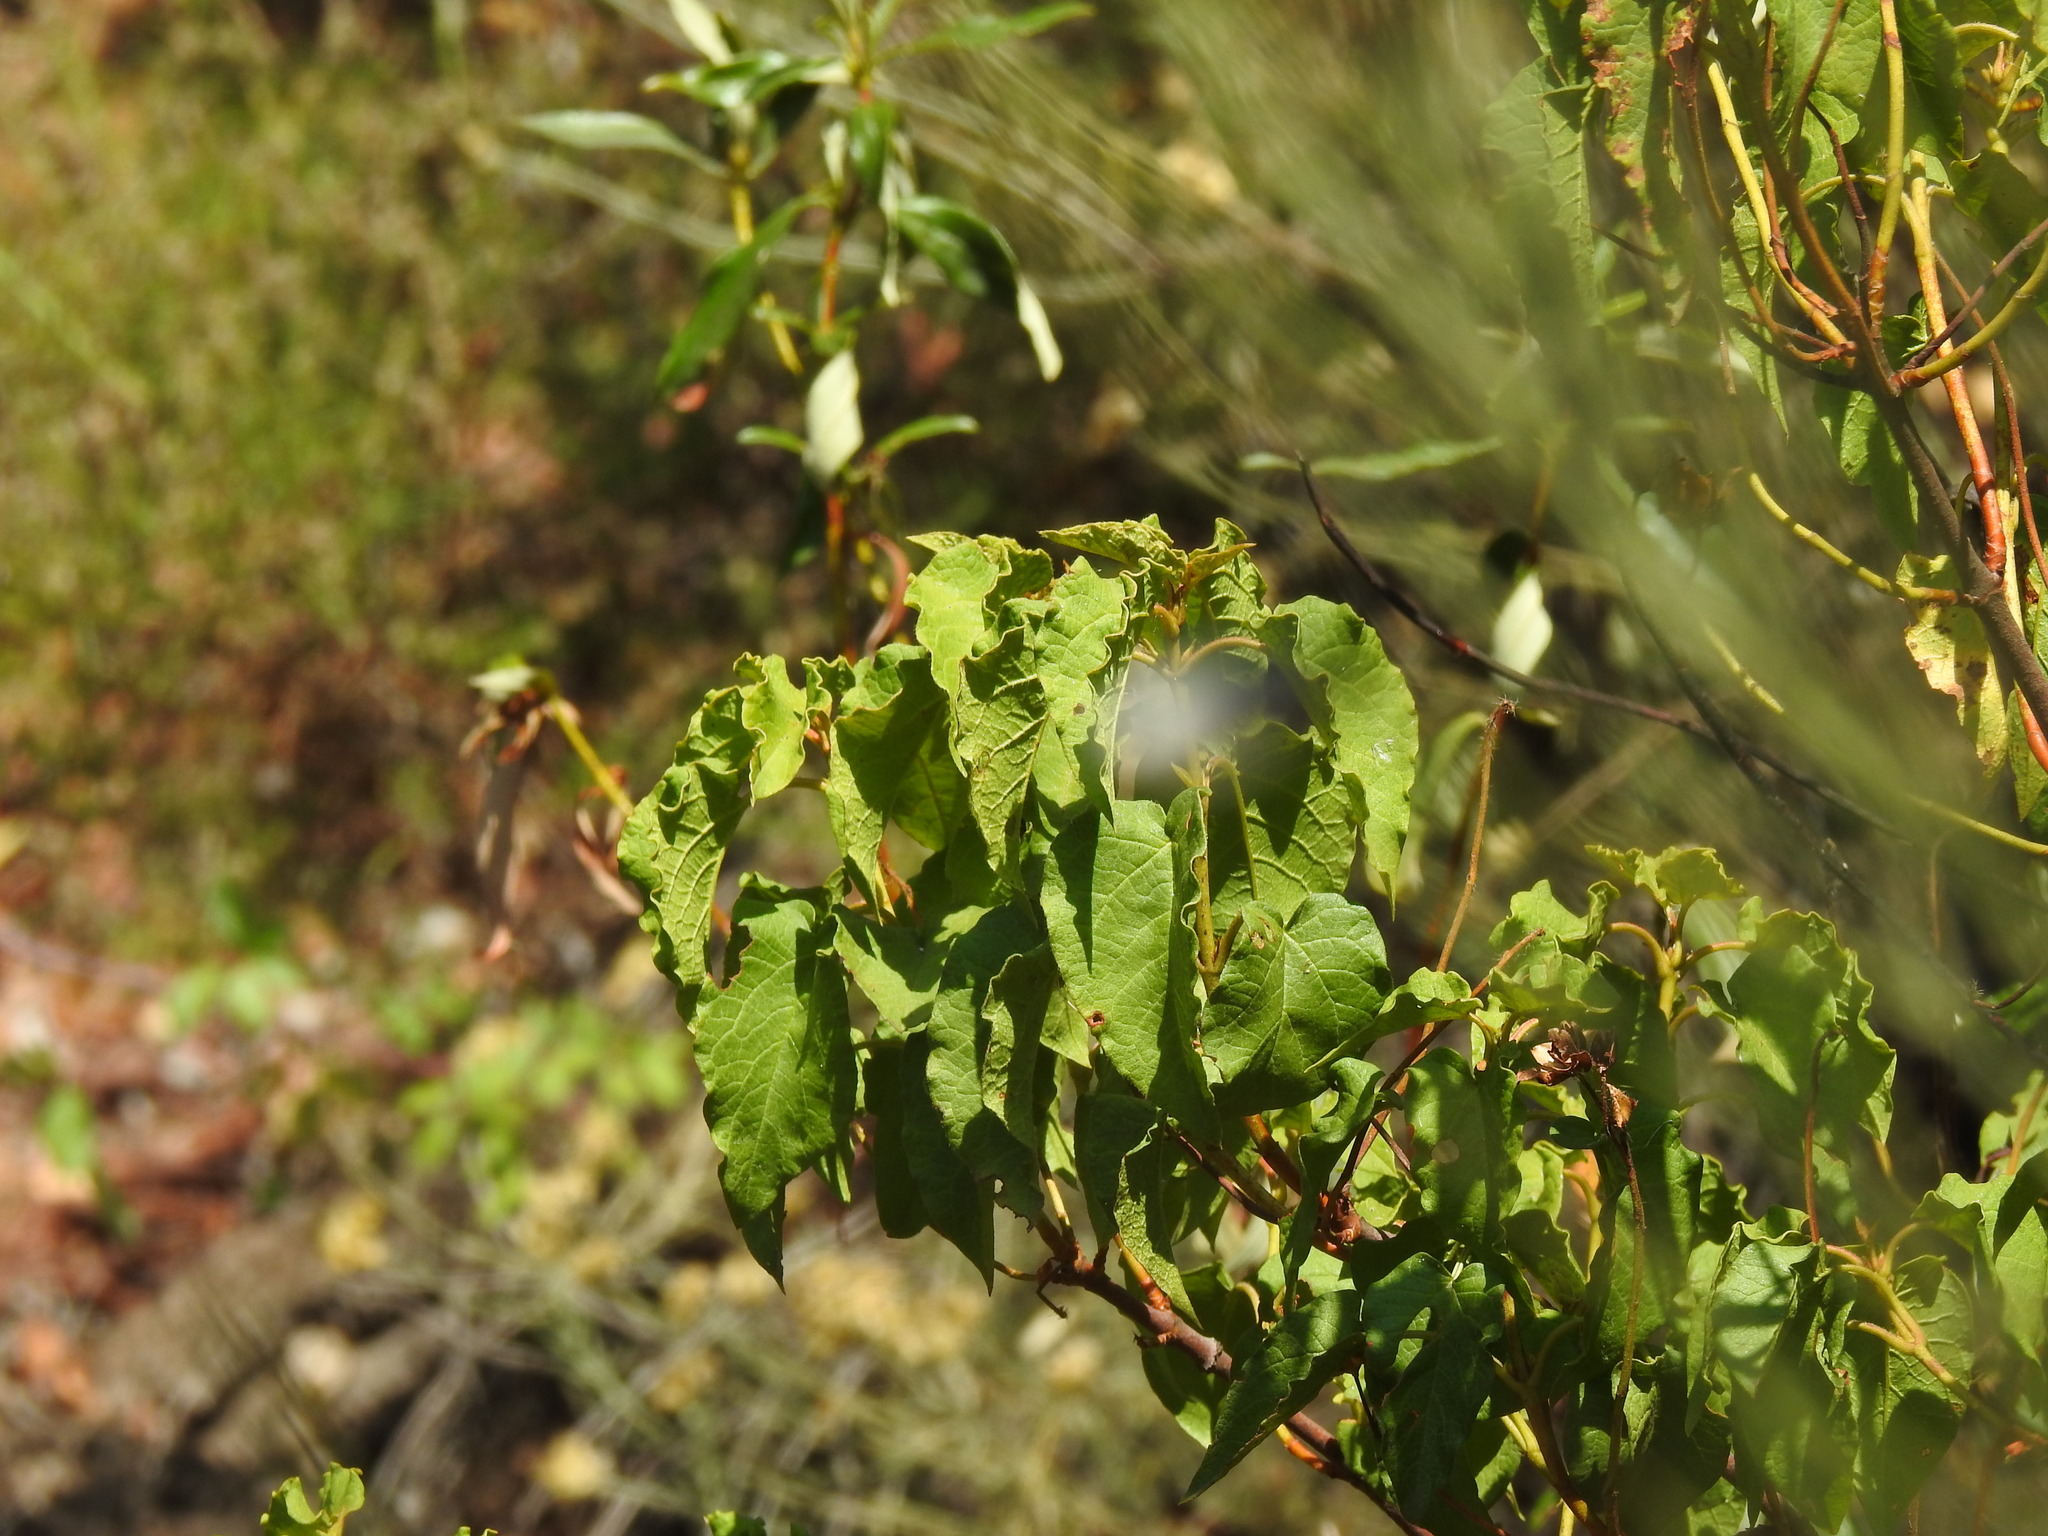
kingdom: Plantae
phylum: Tracheophyta
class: Magnoliopsida
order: Malvales
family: Cistaceae
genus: Cistus
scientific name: Cistus populifolius
